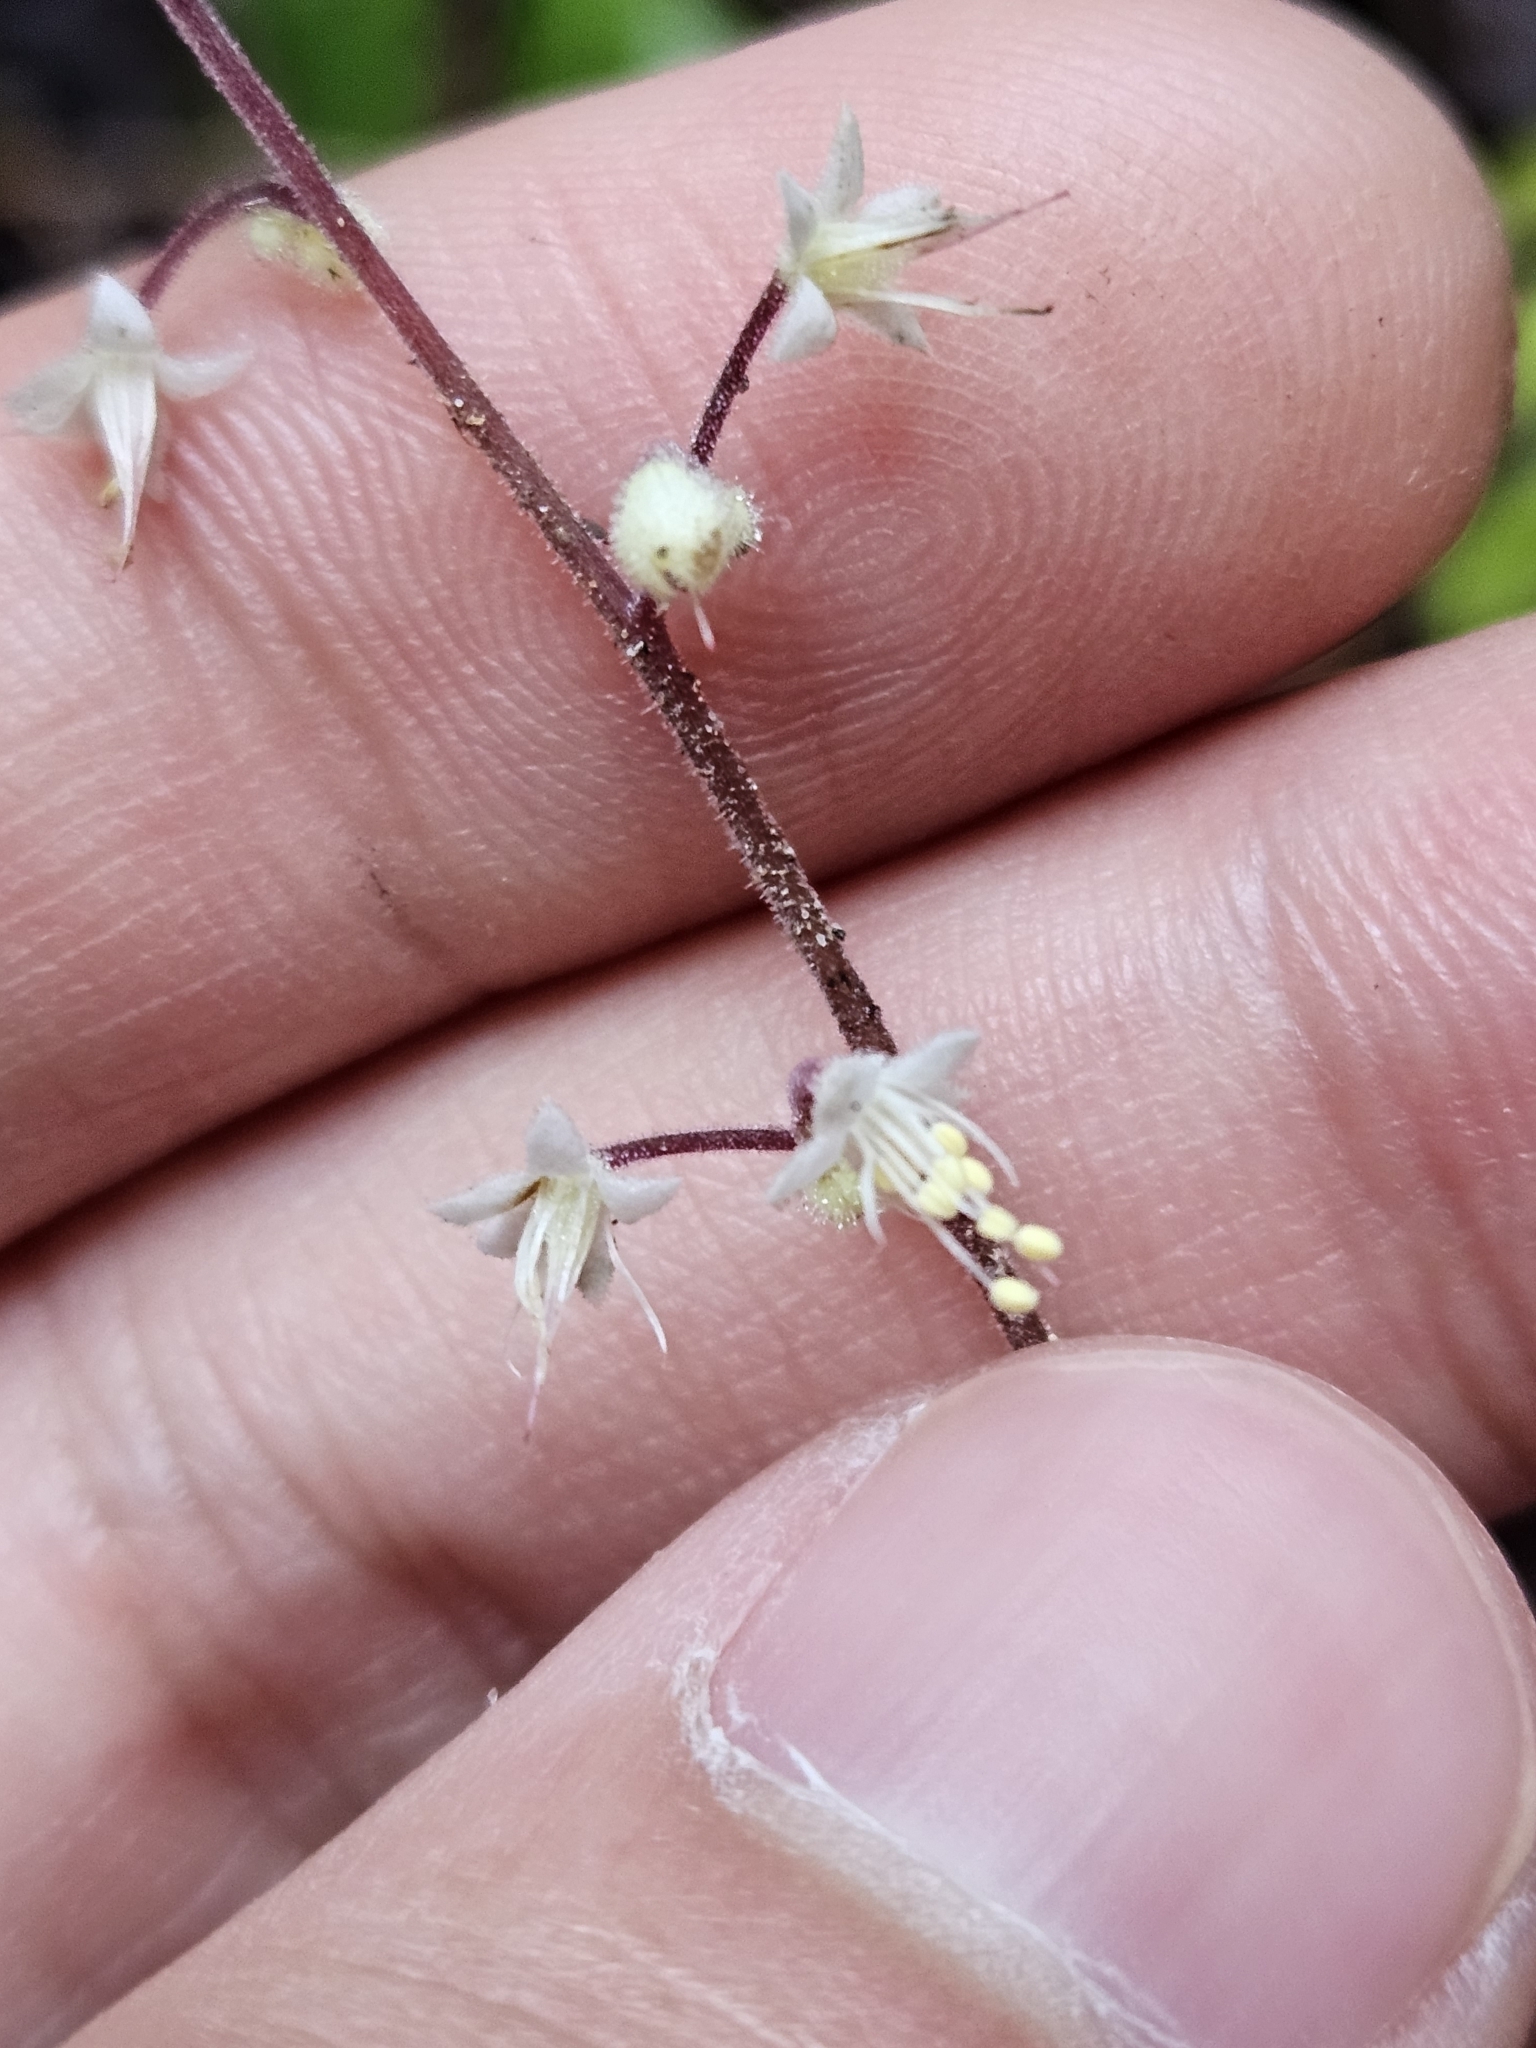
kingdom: Plantae
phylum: Tracheophyta
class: Magnoliopsida
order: Saxifragales
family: Saxifragaceae
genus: Heuchera
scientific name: Heuchera micrantha
